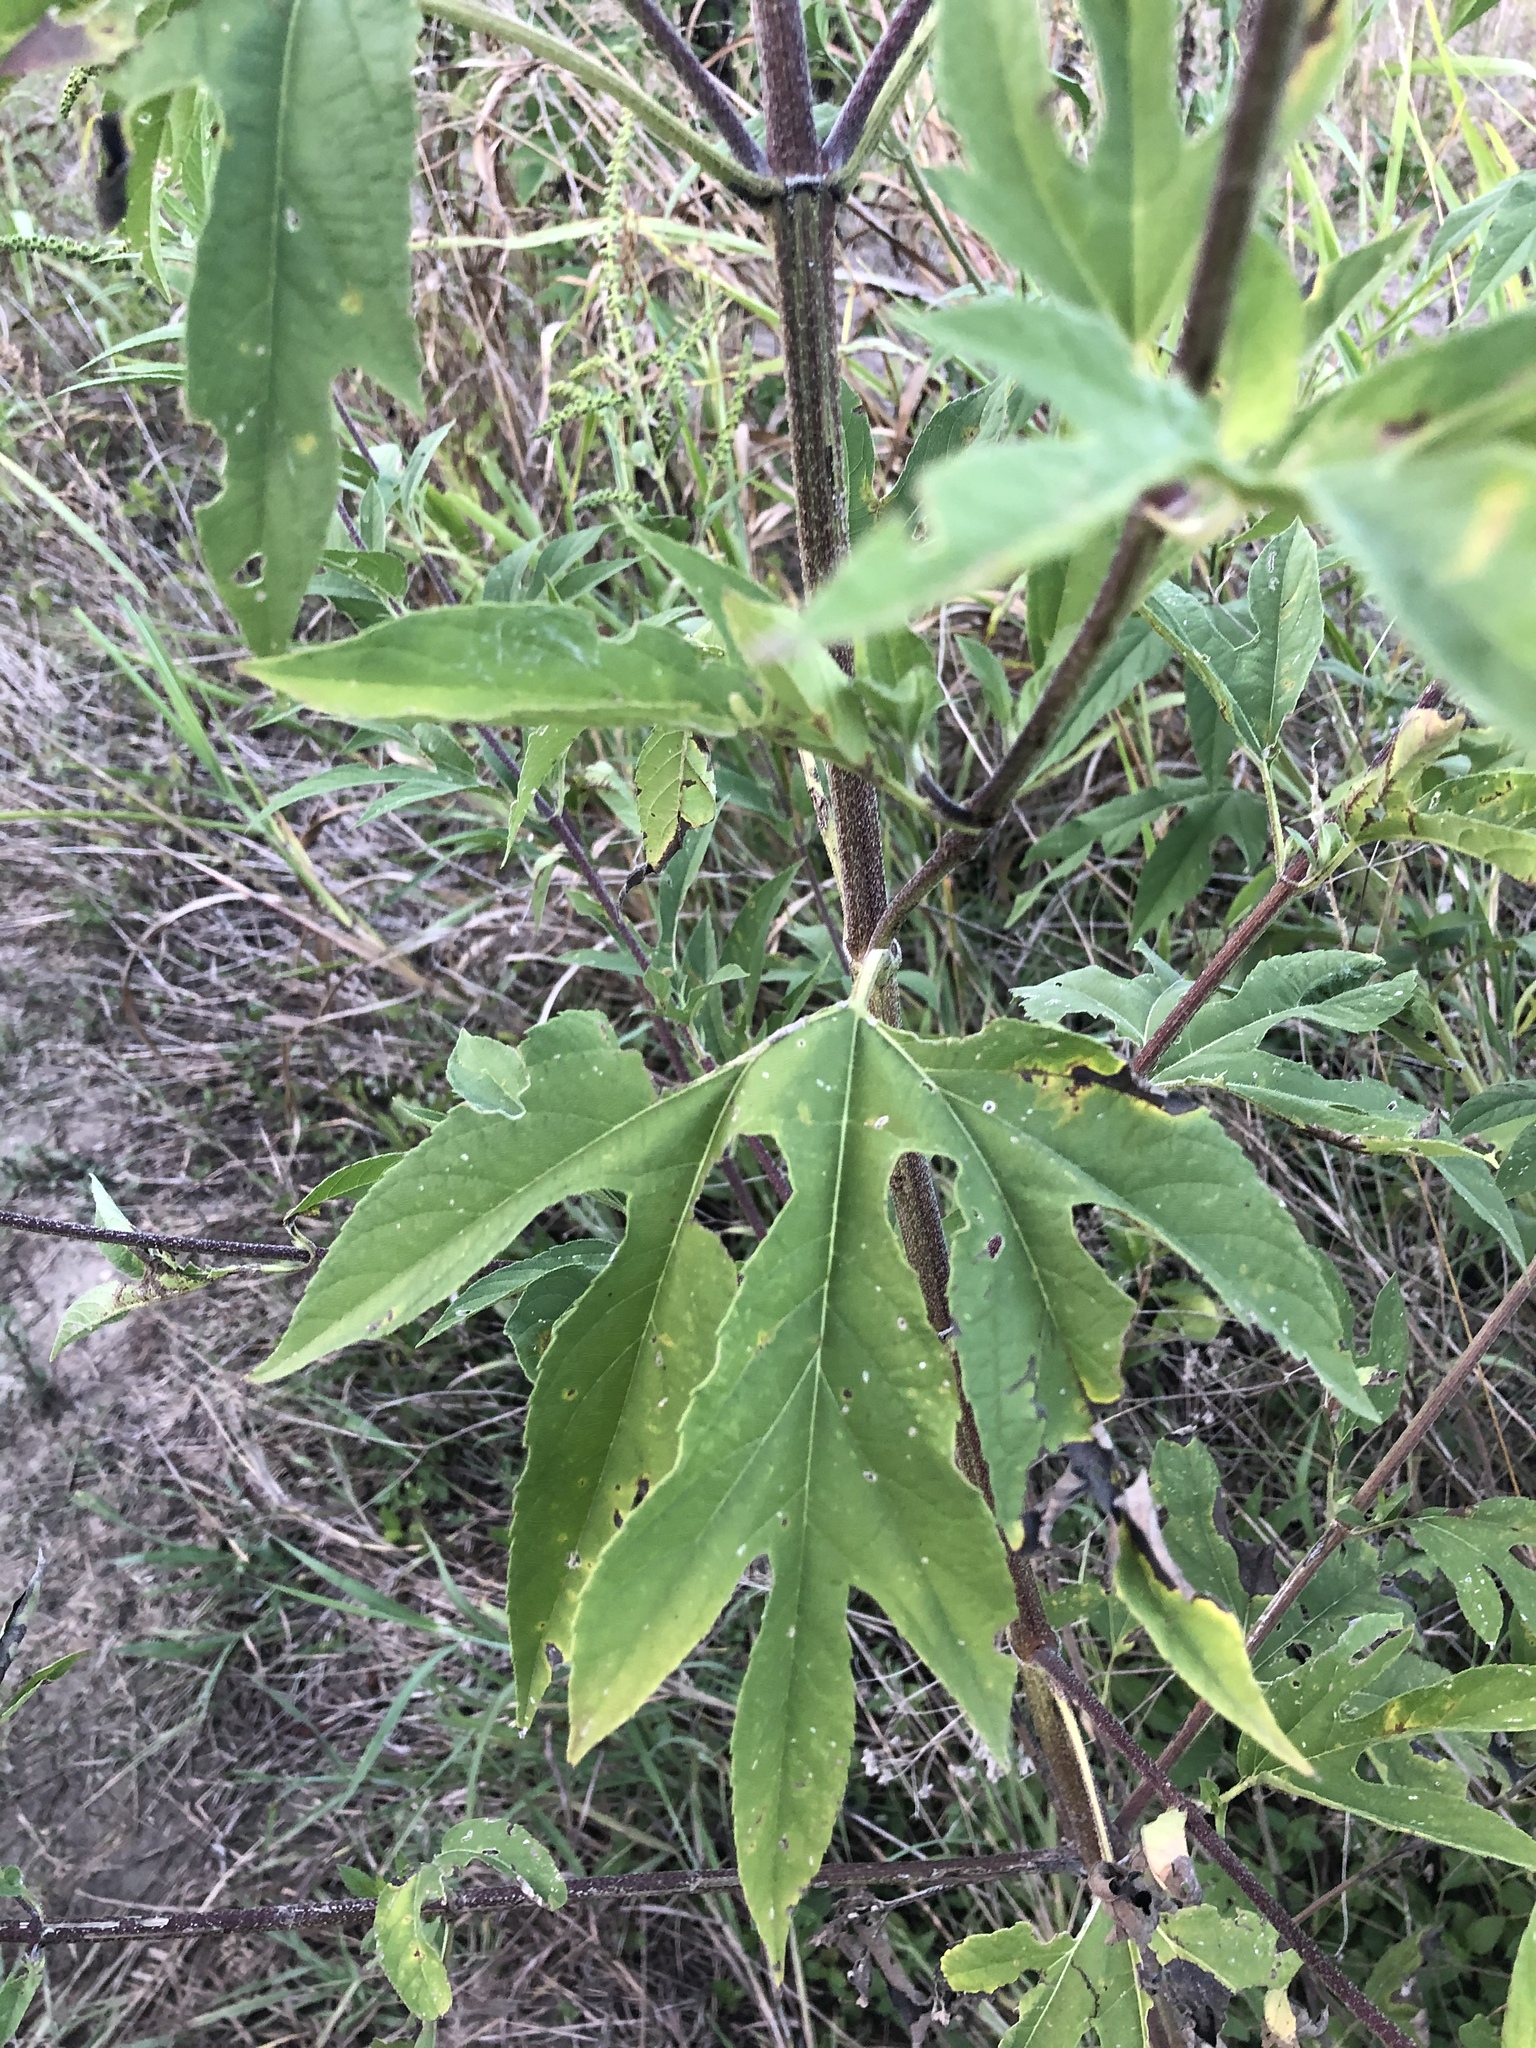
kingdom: Plantae
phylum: Tracheophyta
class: Magnoliopsida
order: Asterales
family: Asteraceae
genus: Ambrosia
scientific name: Ambrosia trifida
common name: Giant ragweed
